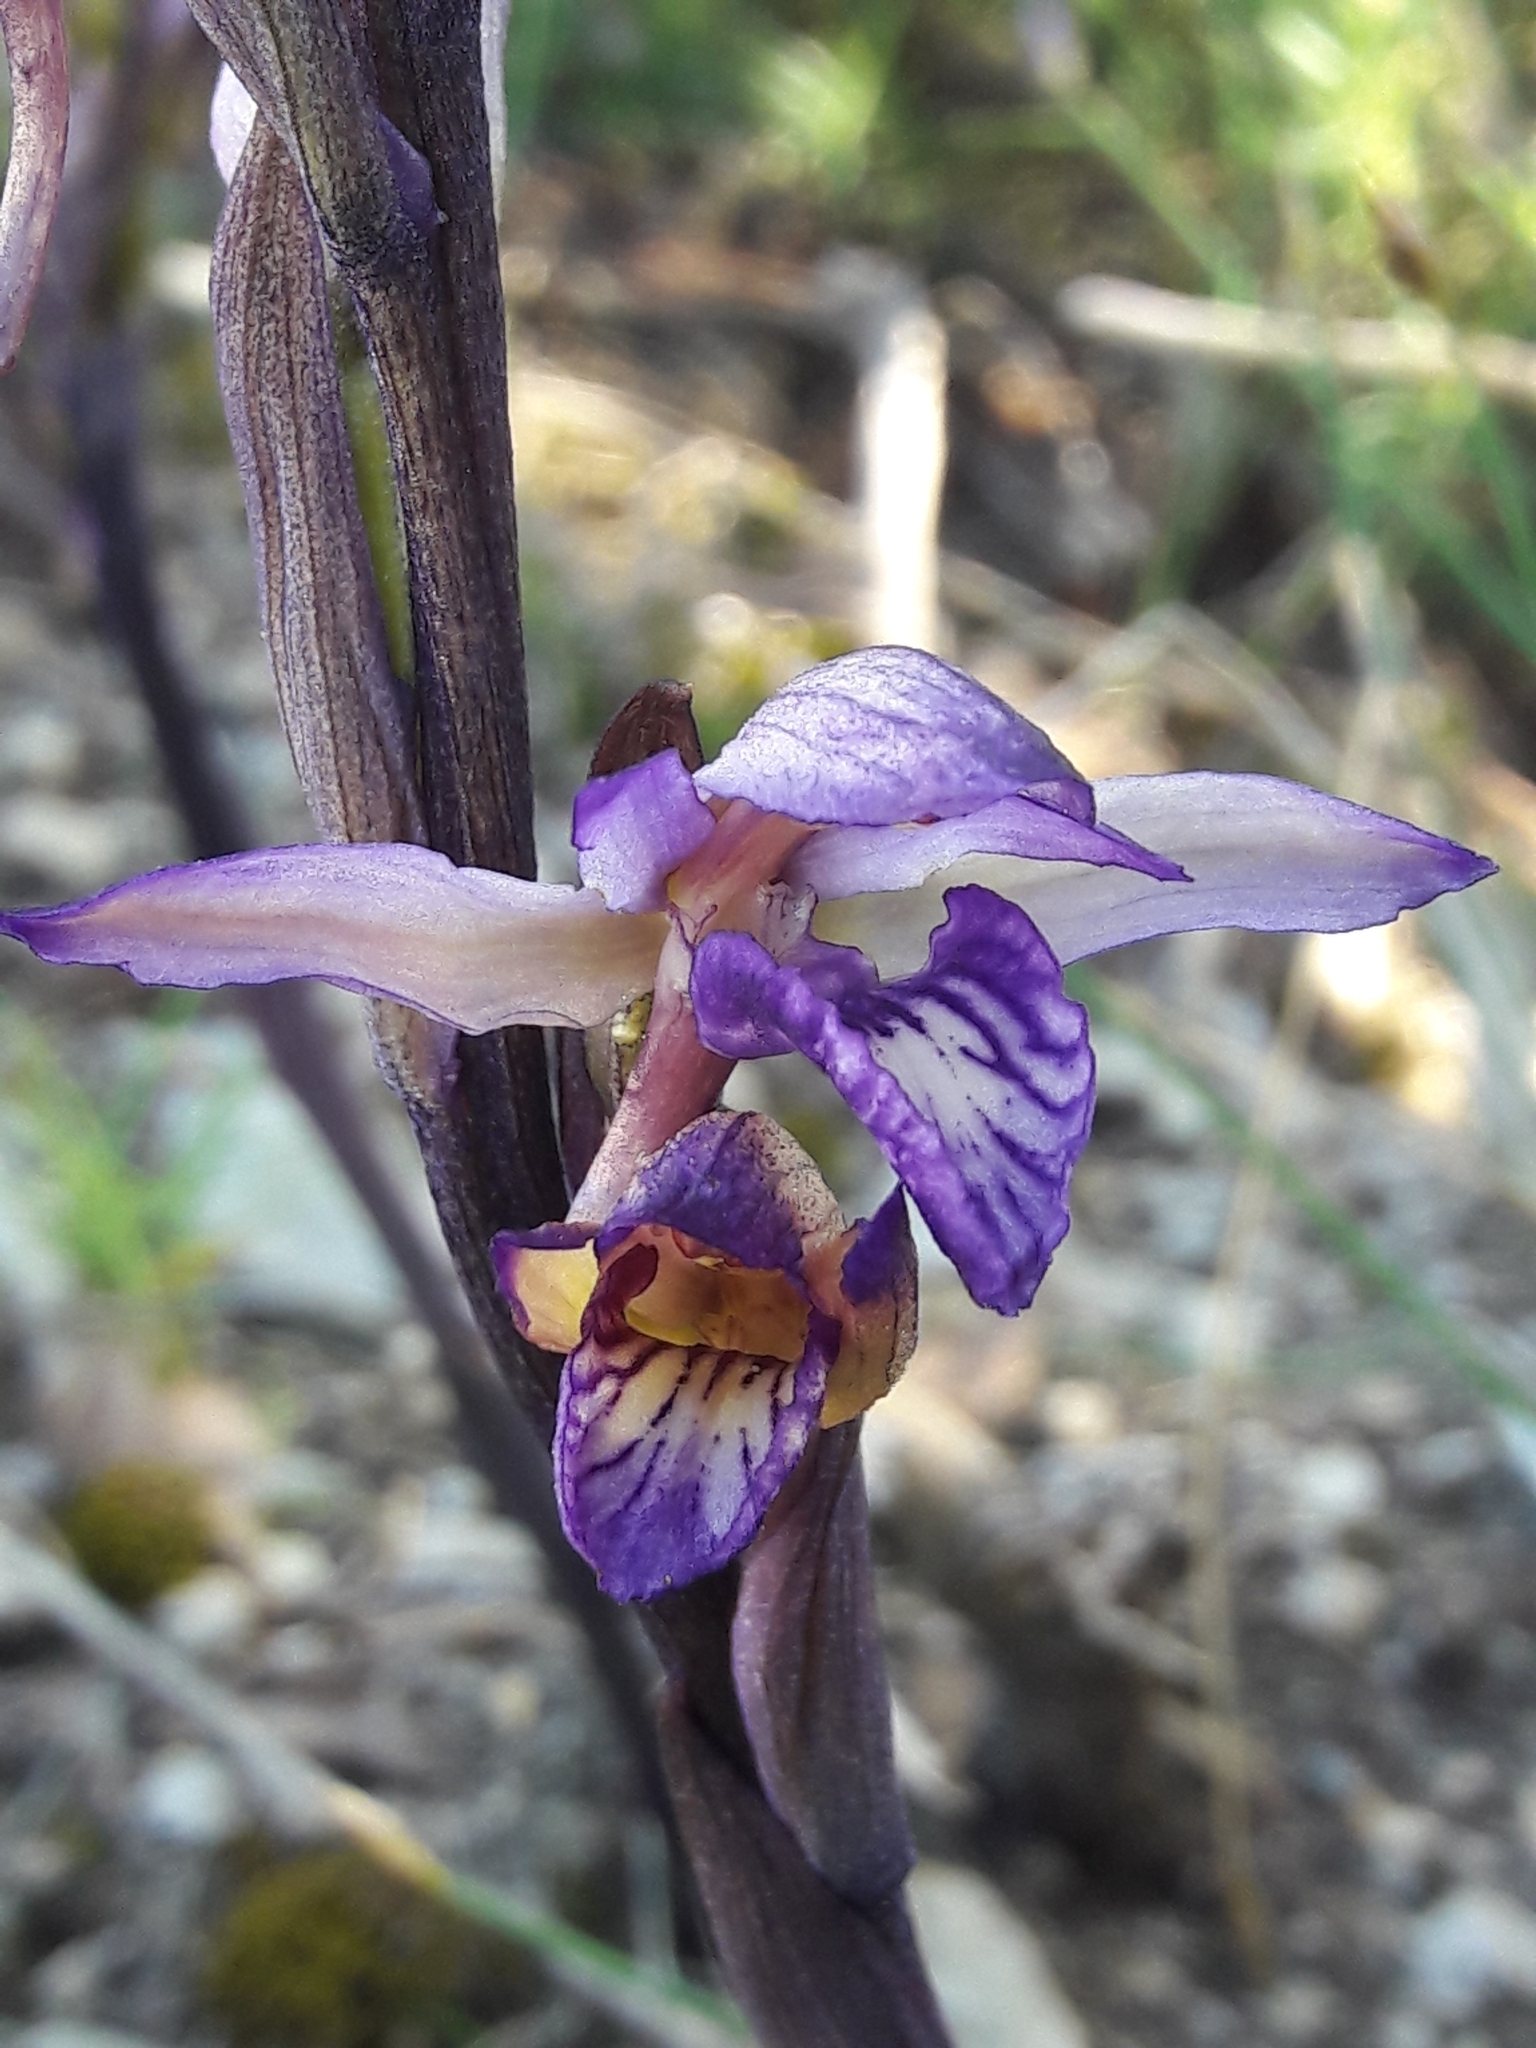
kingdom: Plantae
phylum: Tracheophyta
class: Liliopsida
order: Asparagales
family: Orchidaceae
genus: Limodorum
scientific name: Limodorum abortivum
